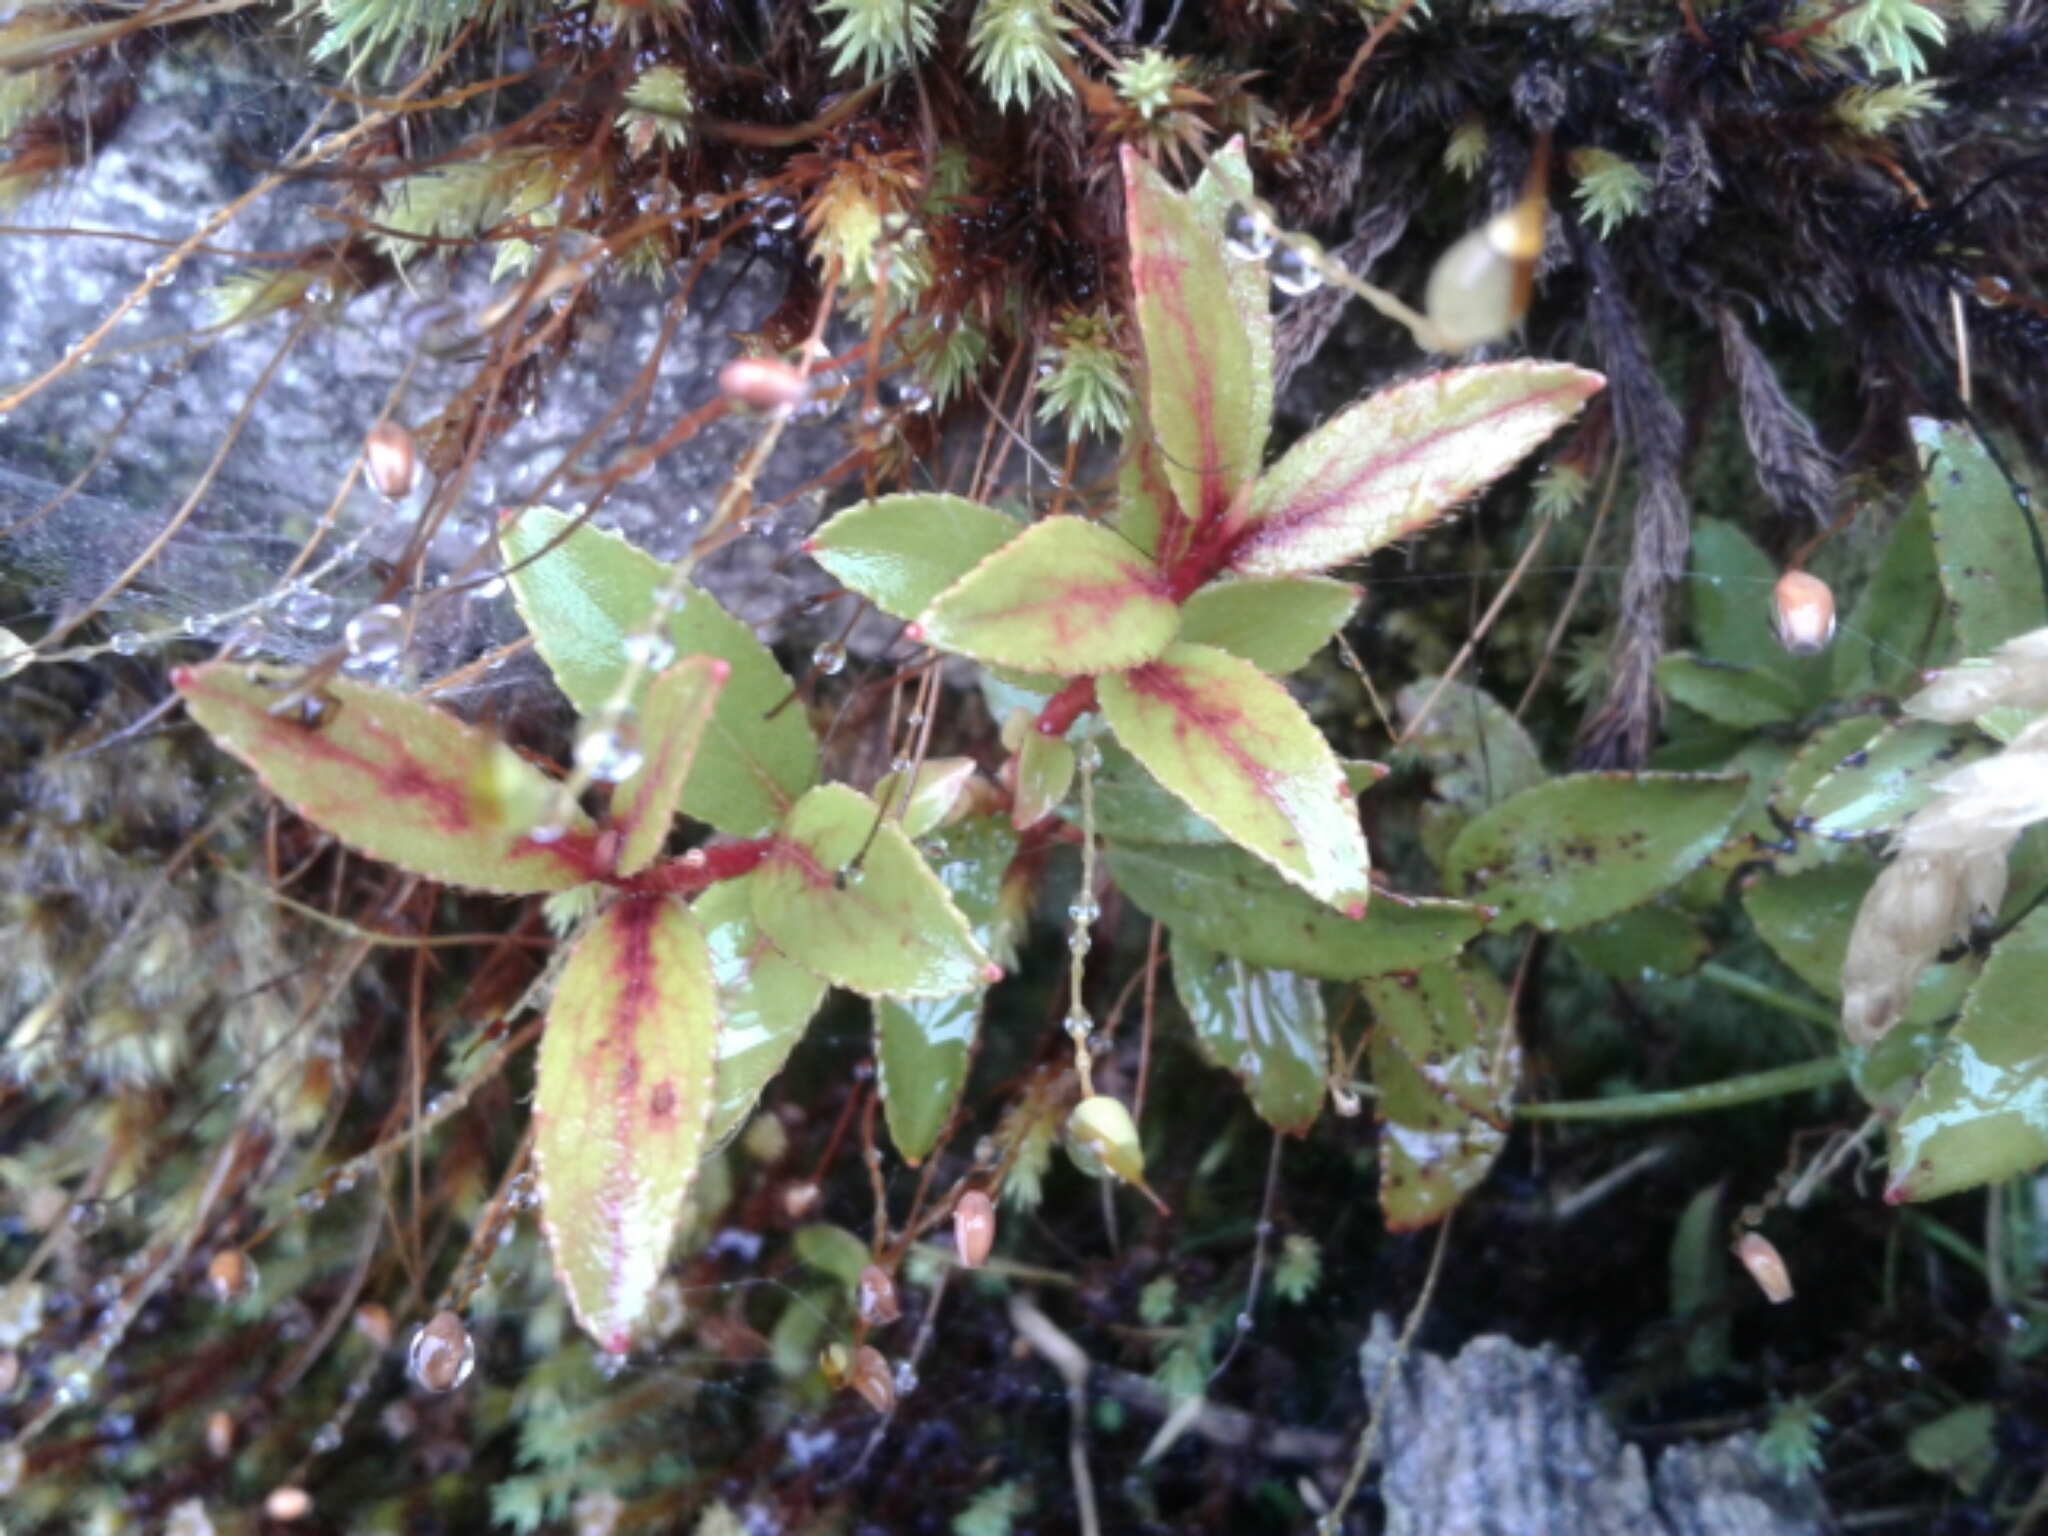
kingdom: Plantae
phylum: Tracheophyta
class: Magnoliopsida
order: Ericales
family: Ericaceae
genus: Gaultheria
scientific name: Gaultheria rupestris
